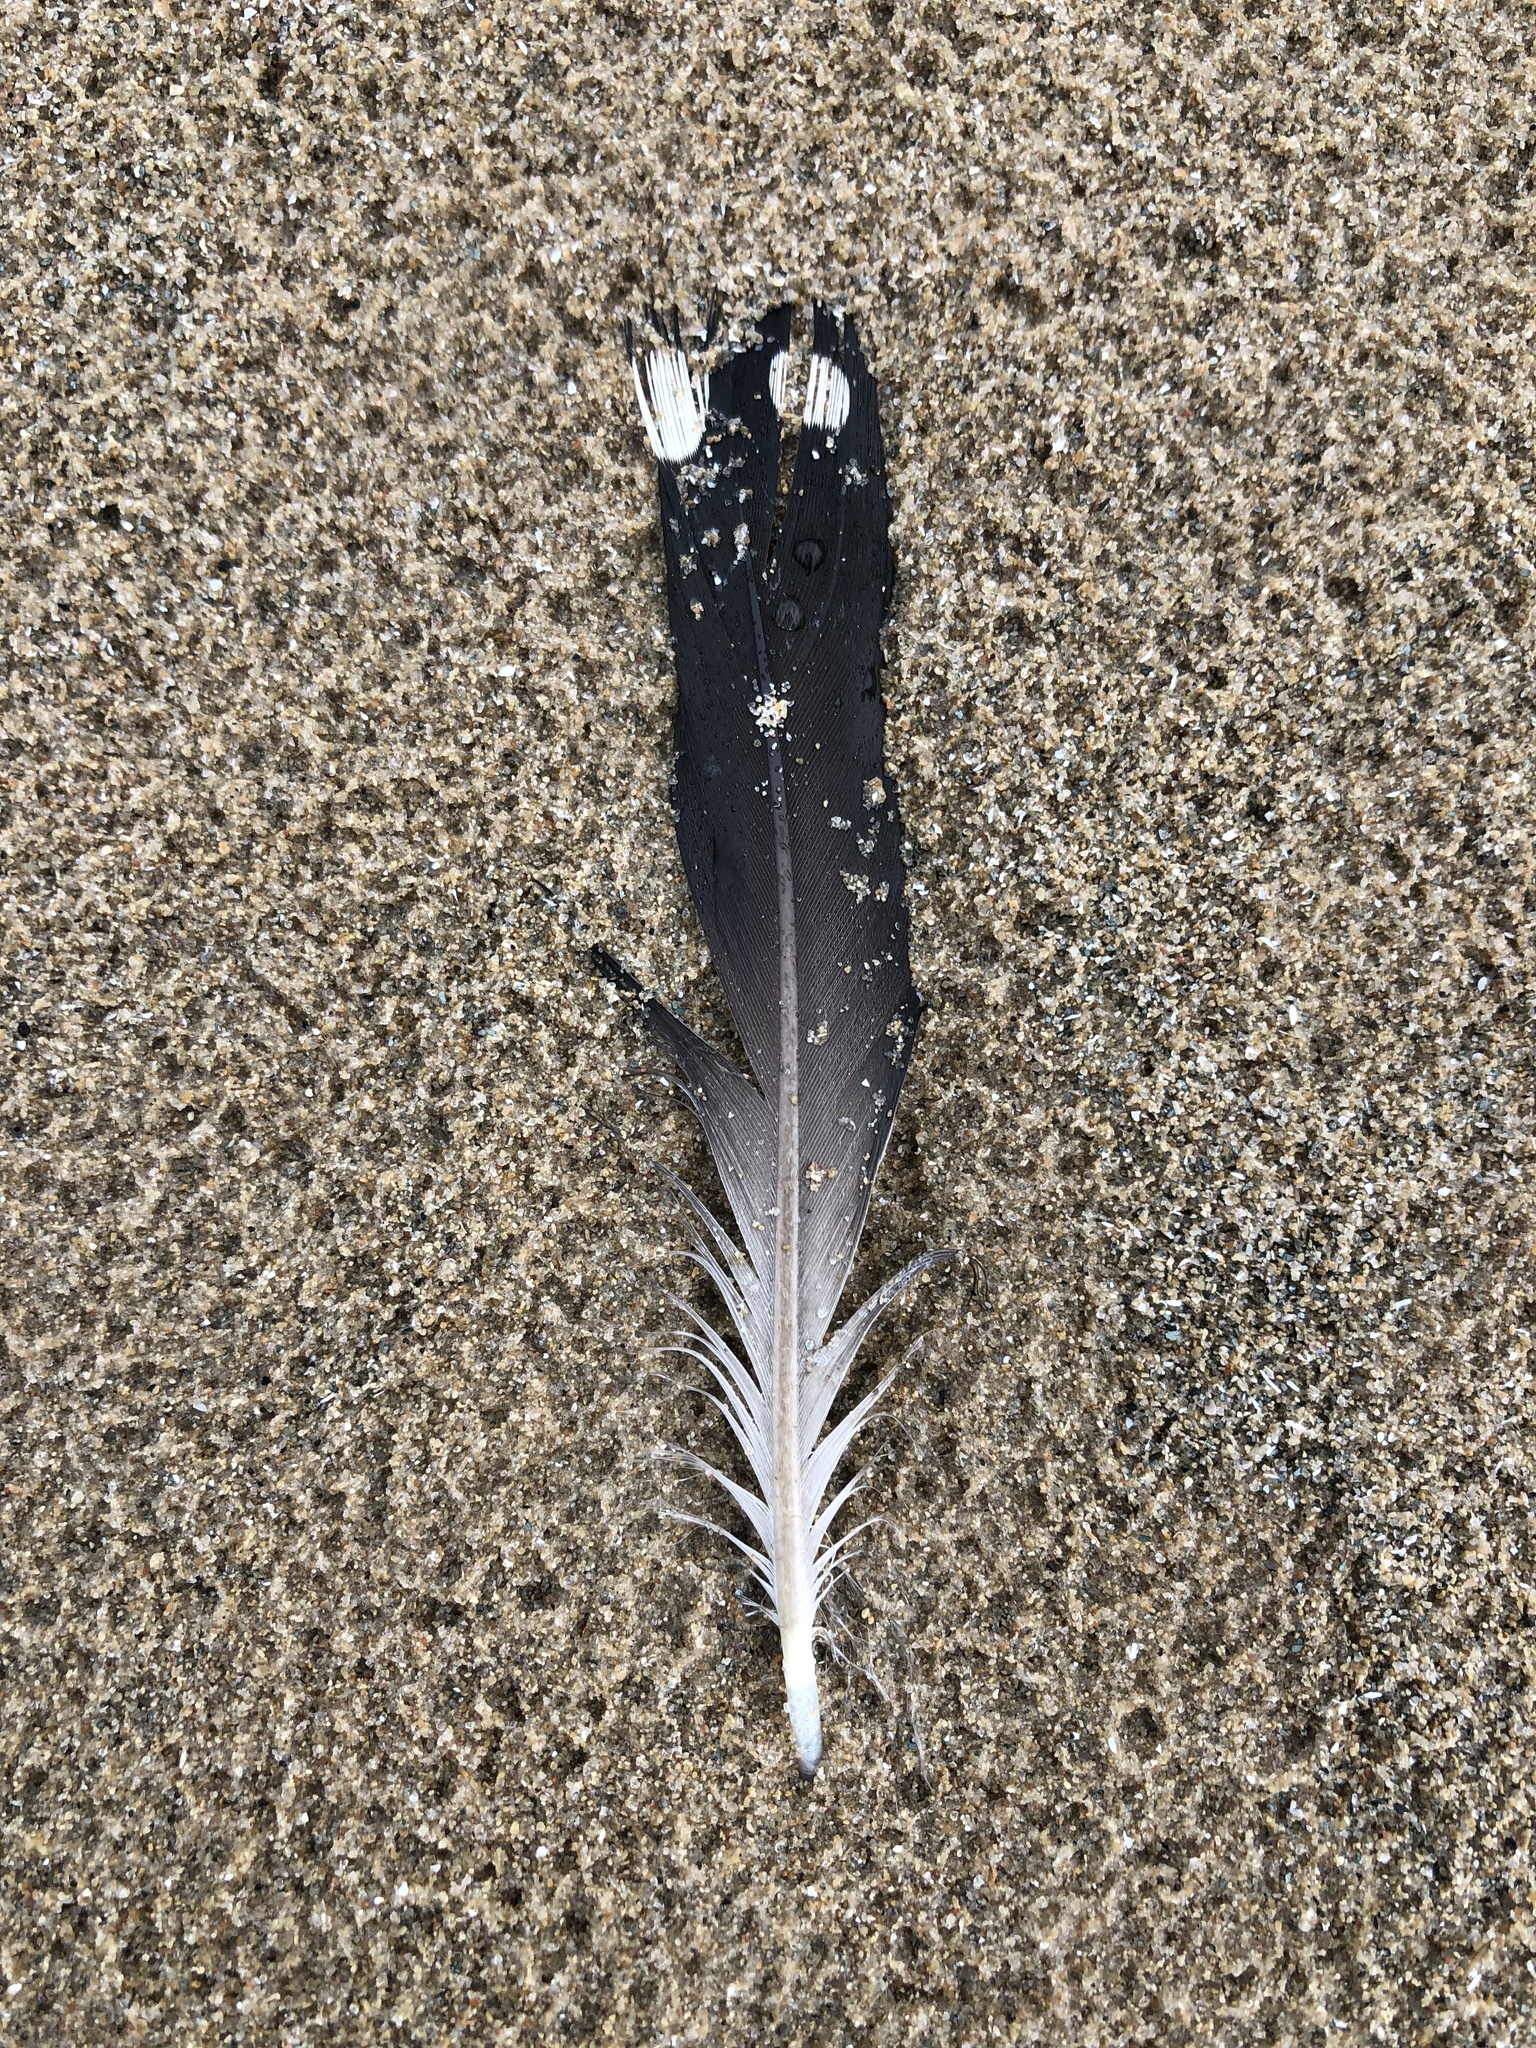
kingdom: Animalia
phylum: Chordata
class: Aves
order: Gaviiformes
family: Gaviidae
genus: Gavia
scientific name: Gavia immer
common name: Common loon
